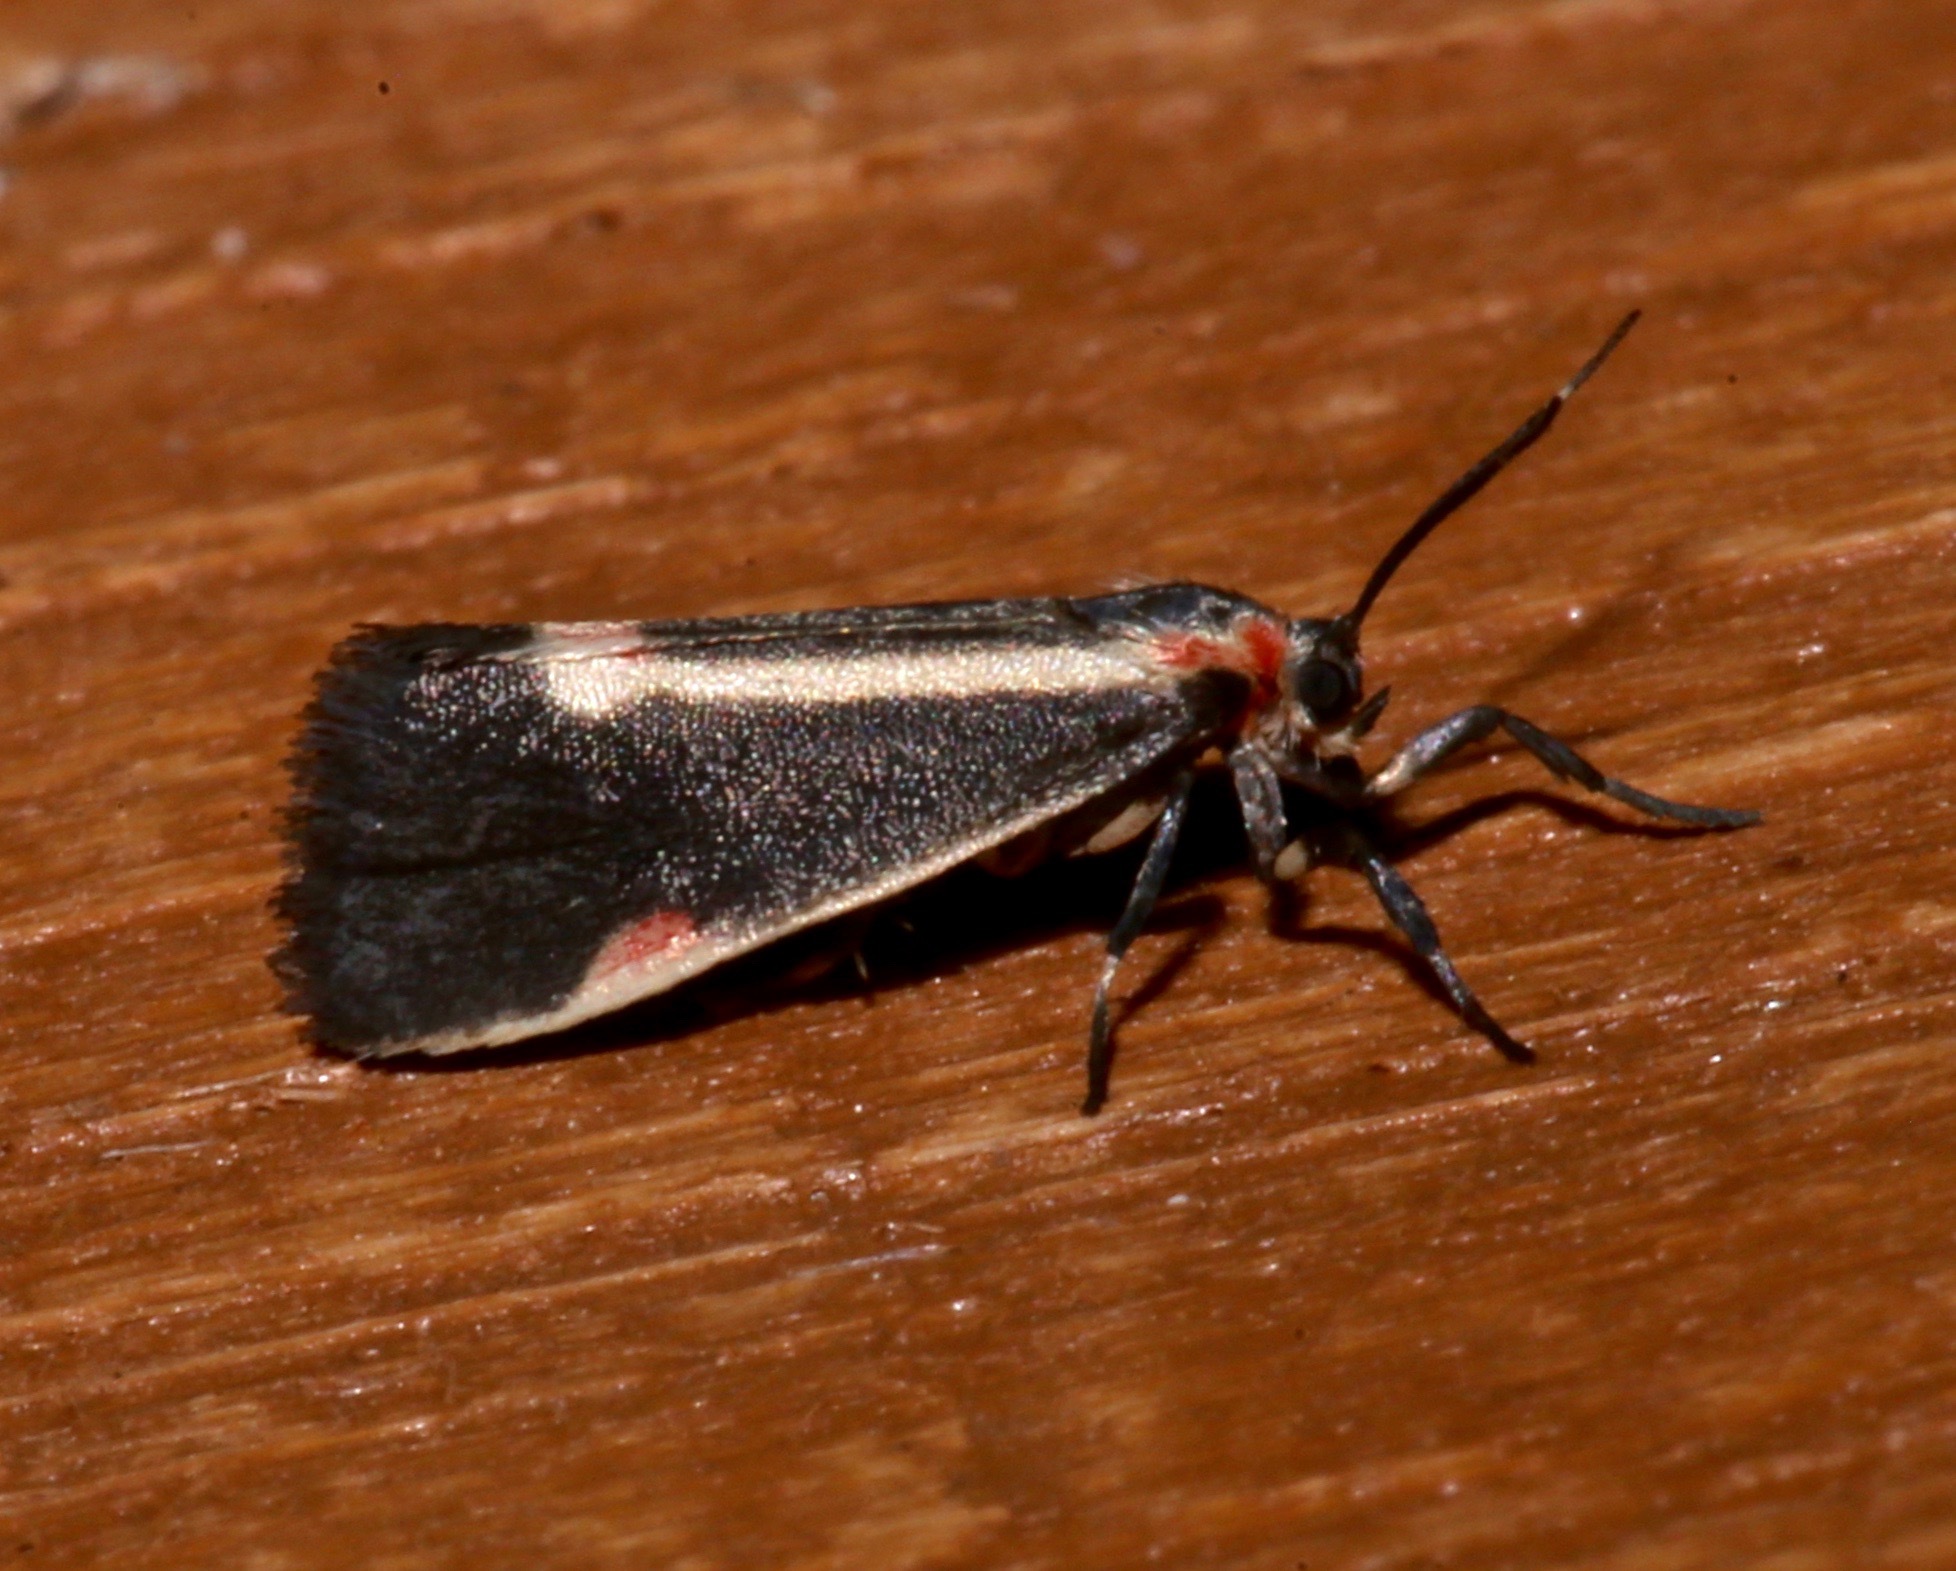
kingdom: Animalia
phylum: Arthropoda
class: Insecta
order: Lepidoptera
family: Erebidae
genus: Cisthene
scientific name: Cisthene packardii
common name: Packard's lichen moth
